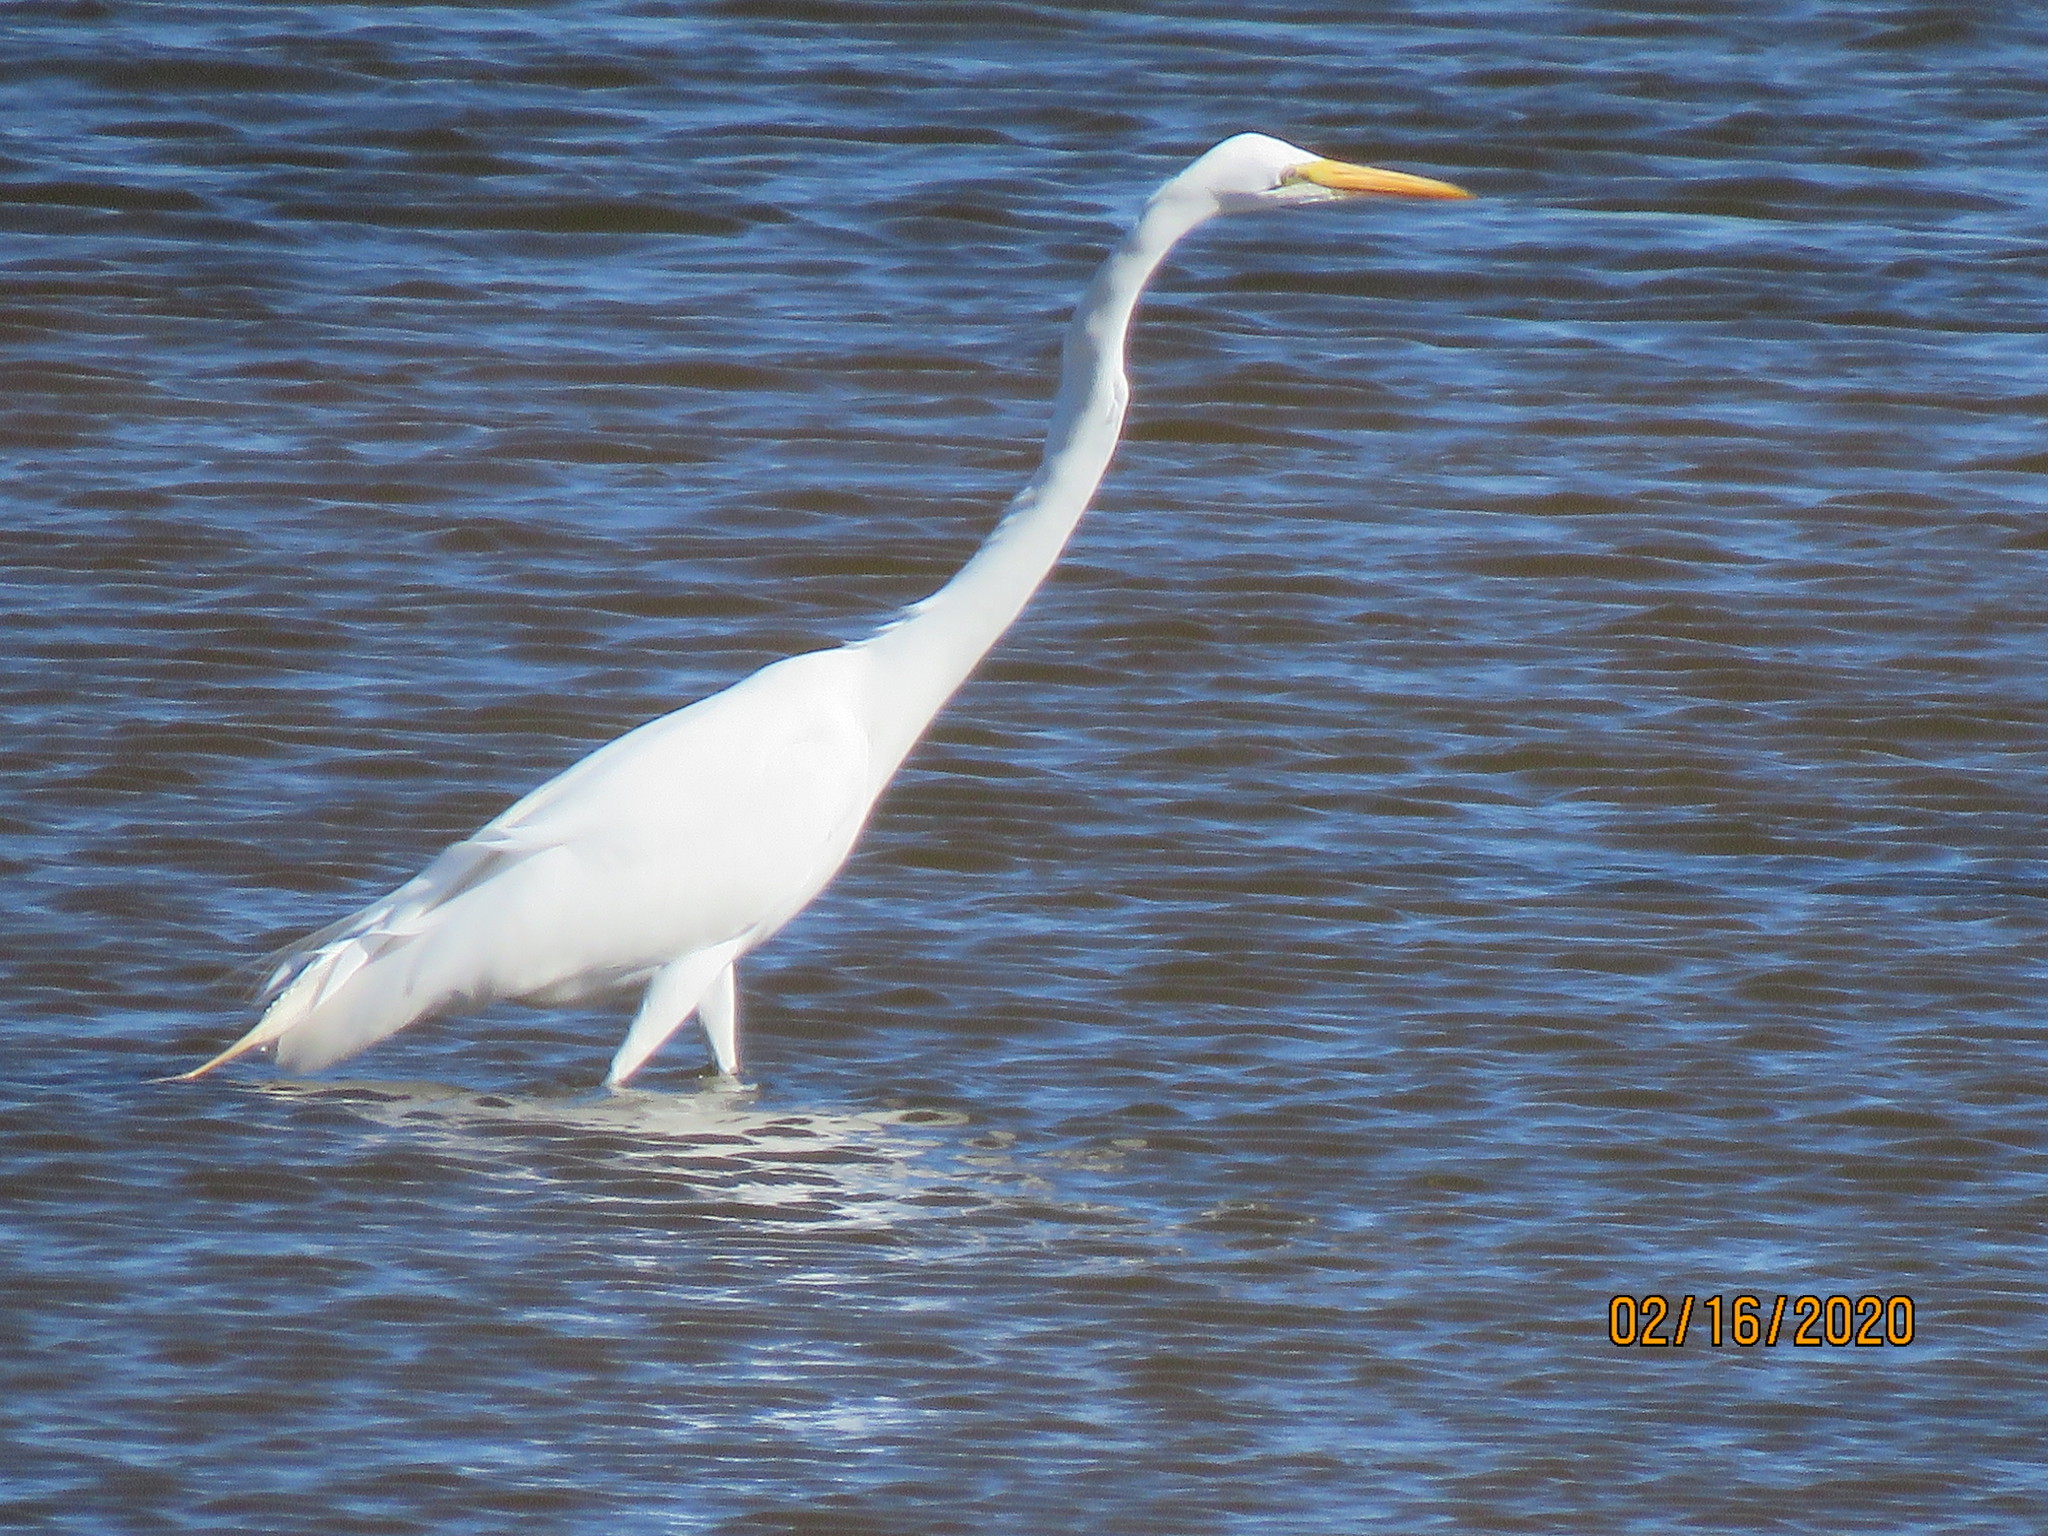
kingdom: Animalia
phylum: Chordata
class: Aves
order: Pelecaniformes
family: Ardeidae
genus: Ardea
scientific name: Ardea alba
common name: Great egret
